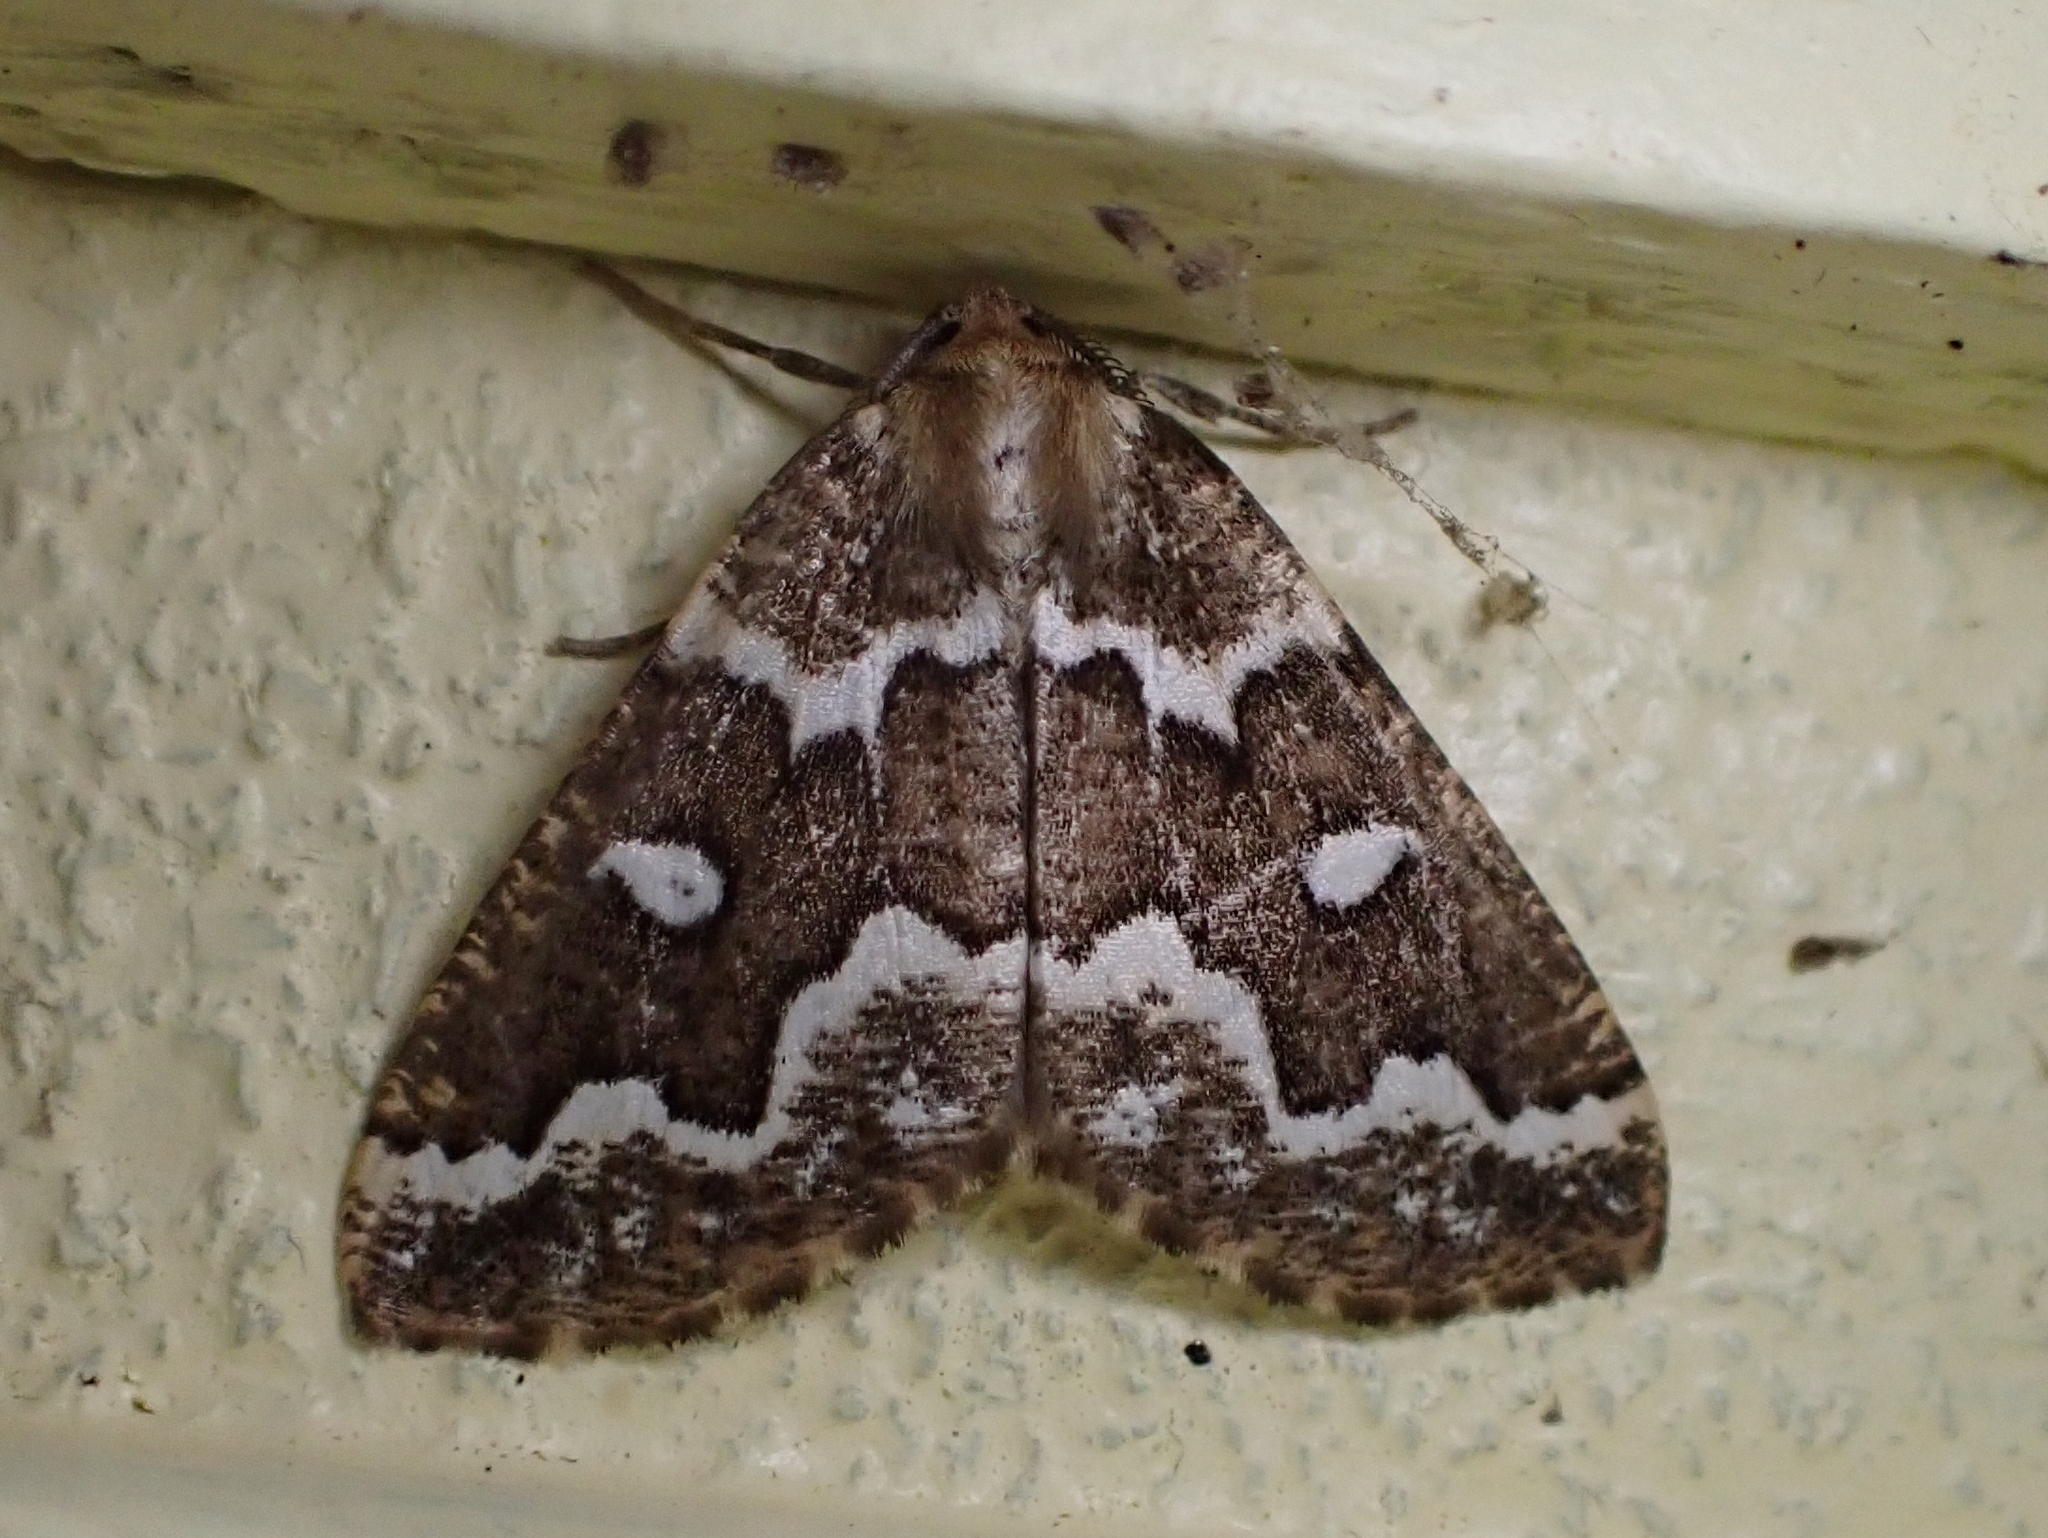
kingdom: Animalia
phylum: Arthropoda
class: Insecta
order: Lepidoptera
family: Geometridae
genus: Caripeta
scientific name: Caripeta divisata
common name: Gray spruce looper
